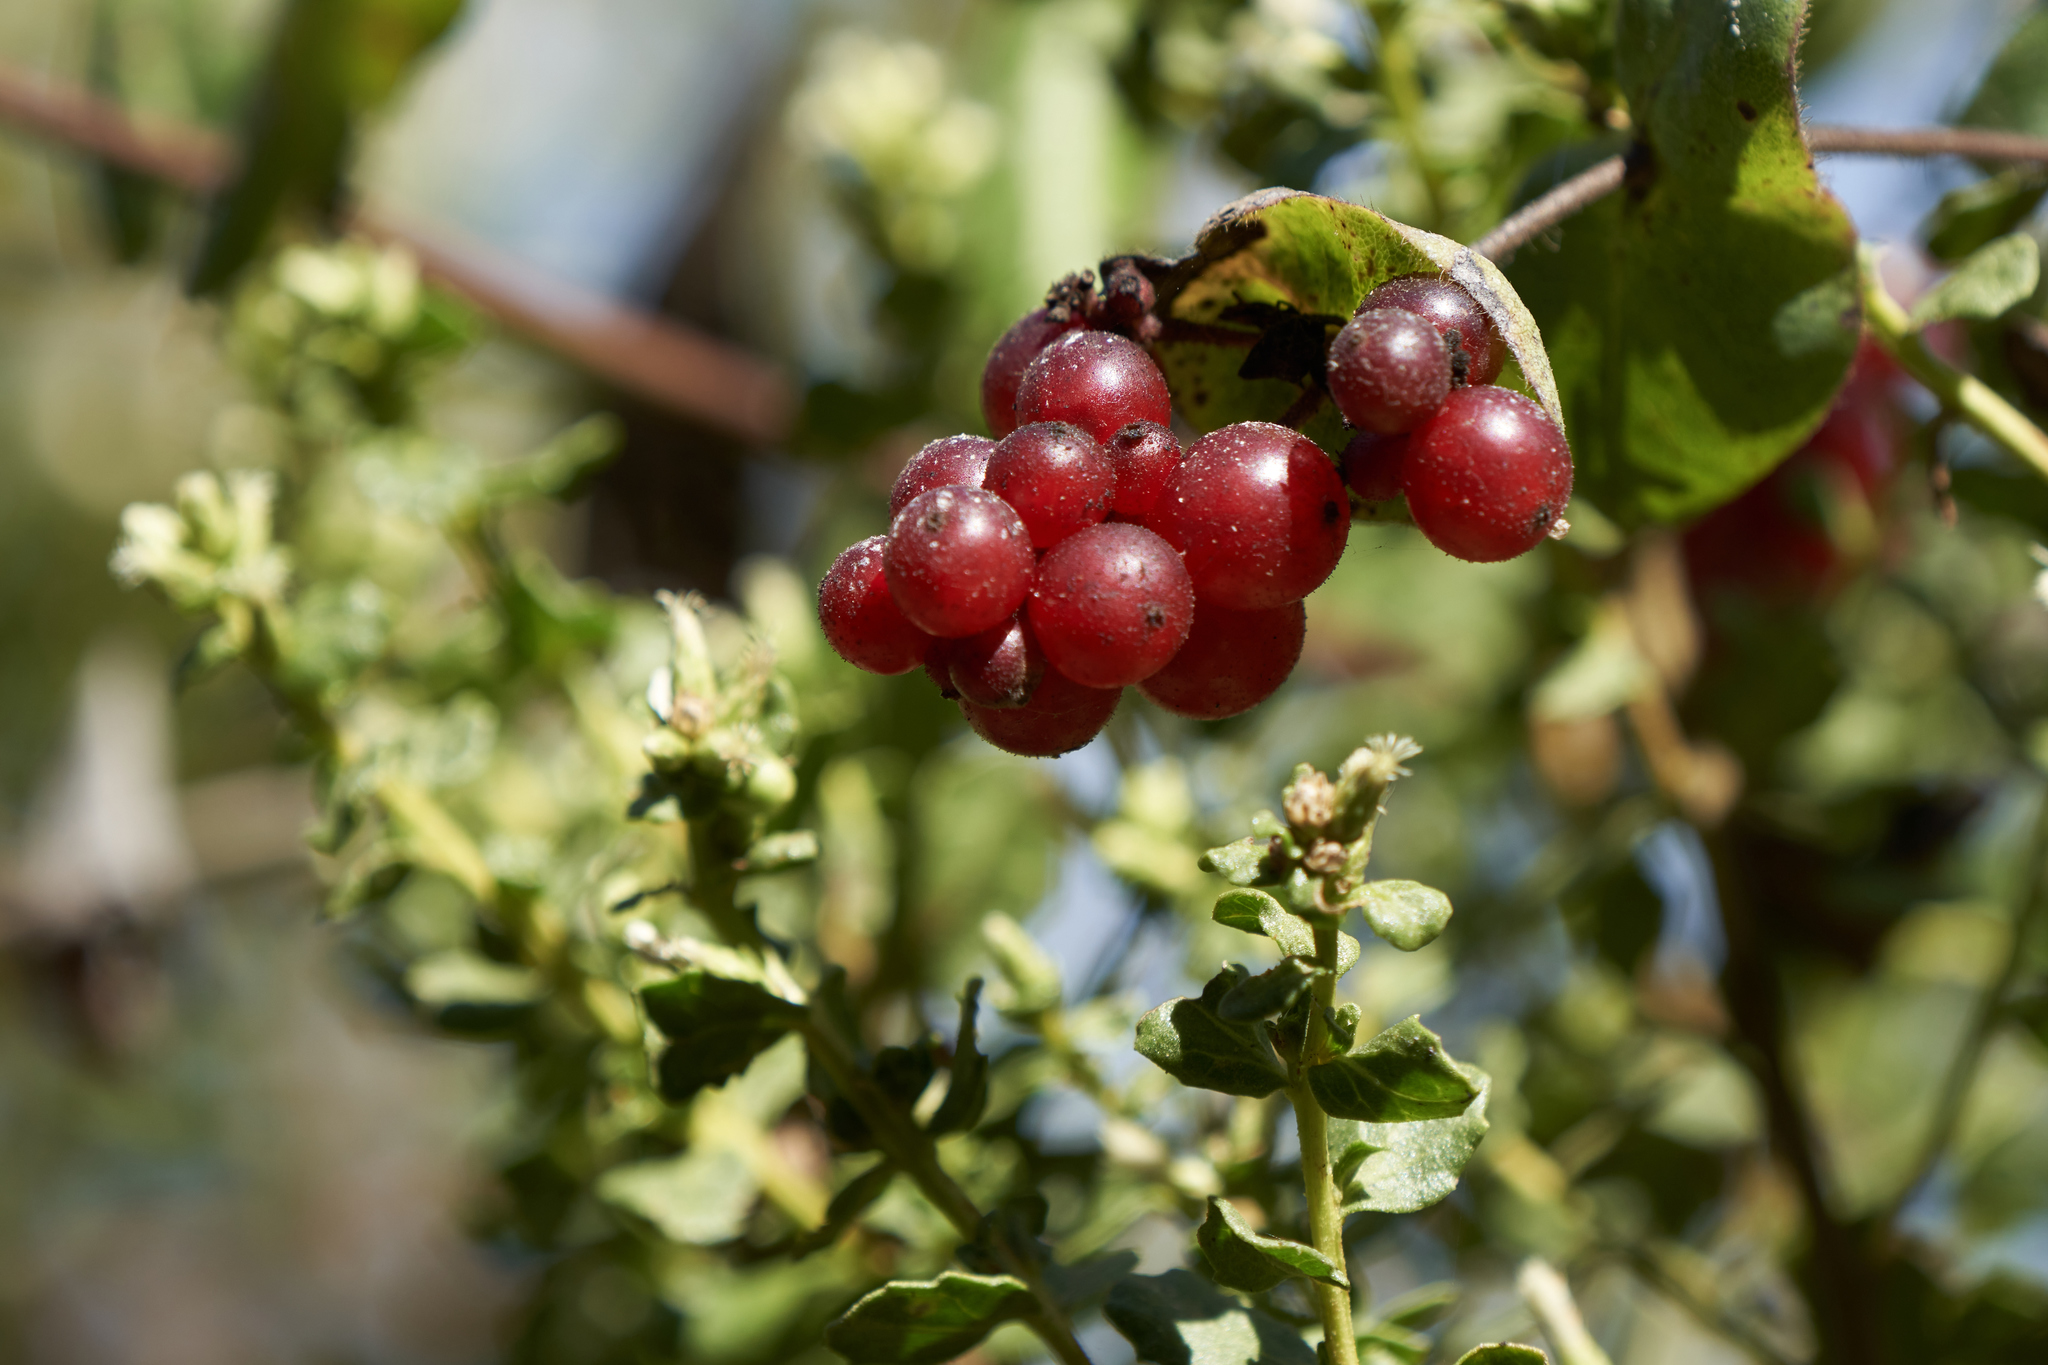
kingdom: Plantae
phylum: Tracheophyta
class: Magnoliopsida
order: Dipsacales
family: Caprifoliaceae
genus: Lonicera
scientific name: Lonicera hispidula
